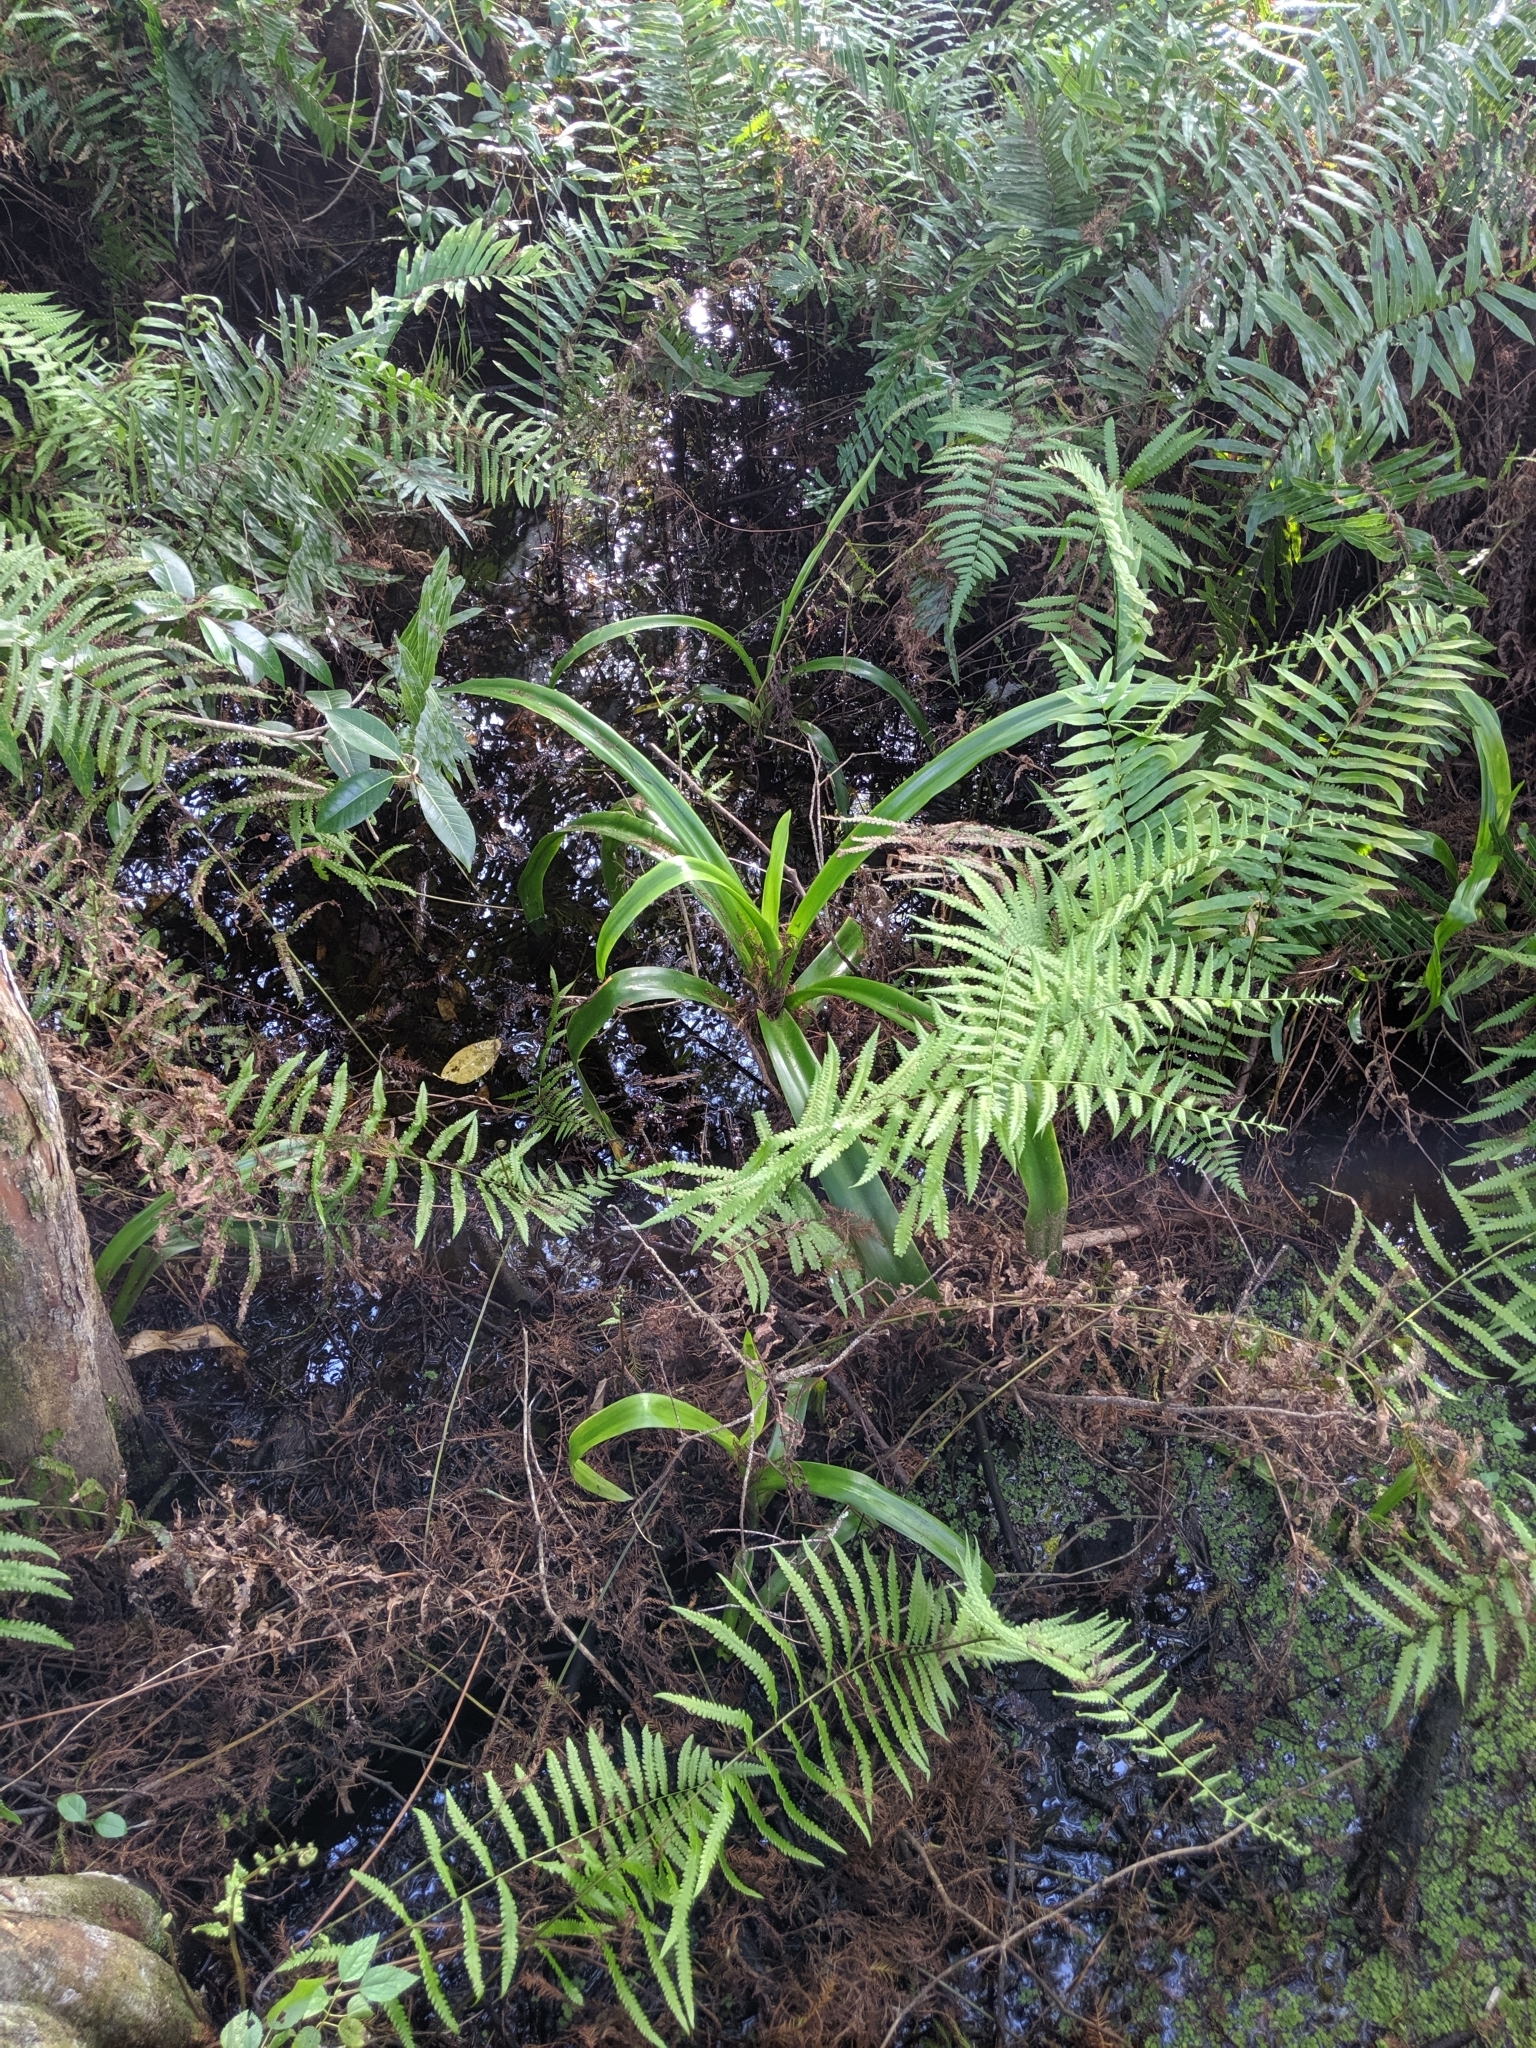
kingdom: Plantae
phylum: Tracheophyta
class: Liliopsida
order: Asparagales
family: Amaryllidaceae
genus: Crinum
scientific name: Crinum americanum
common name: Florida swamp-lily
